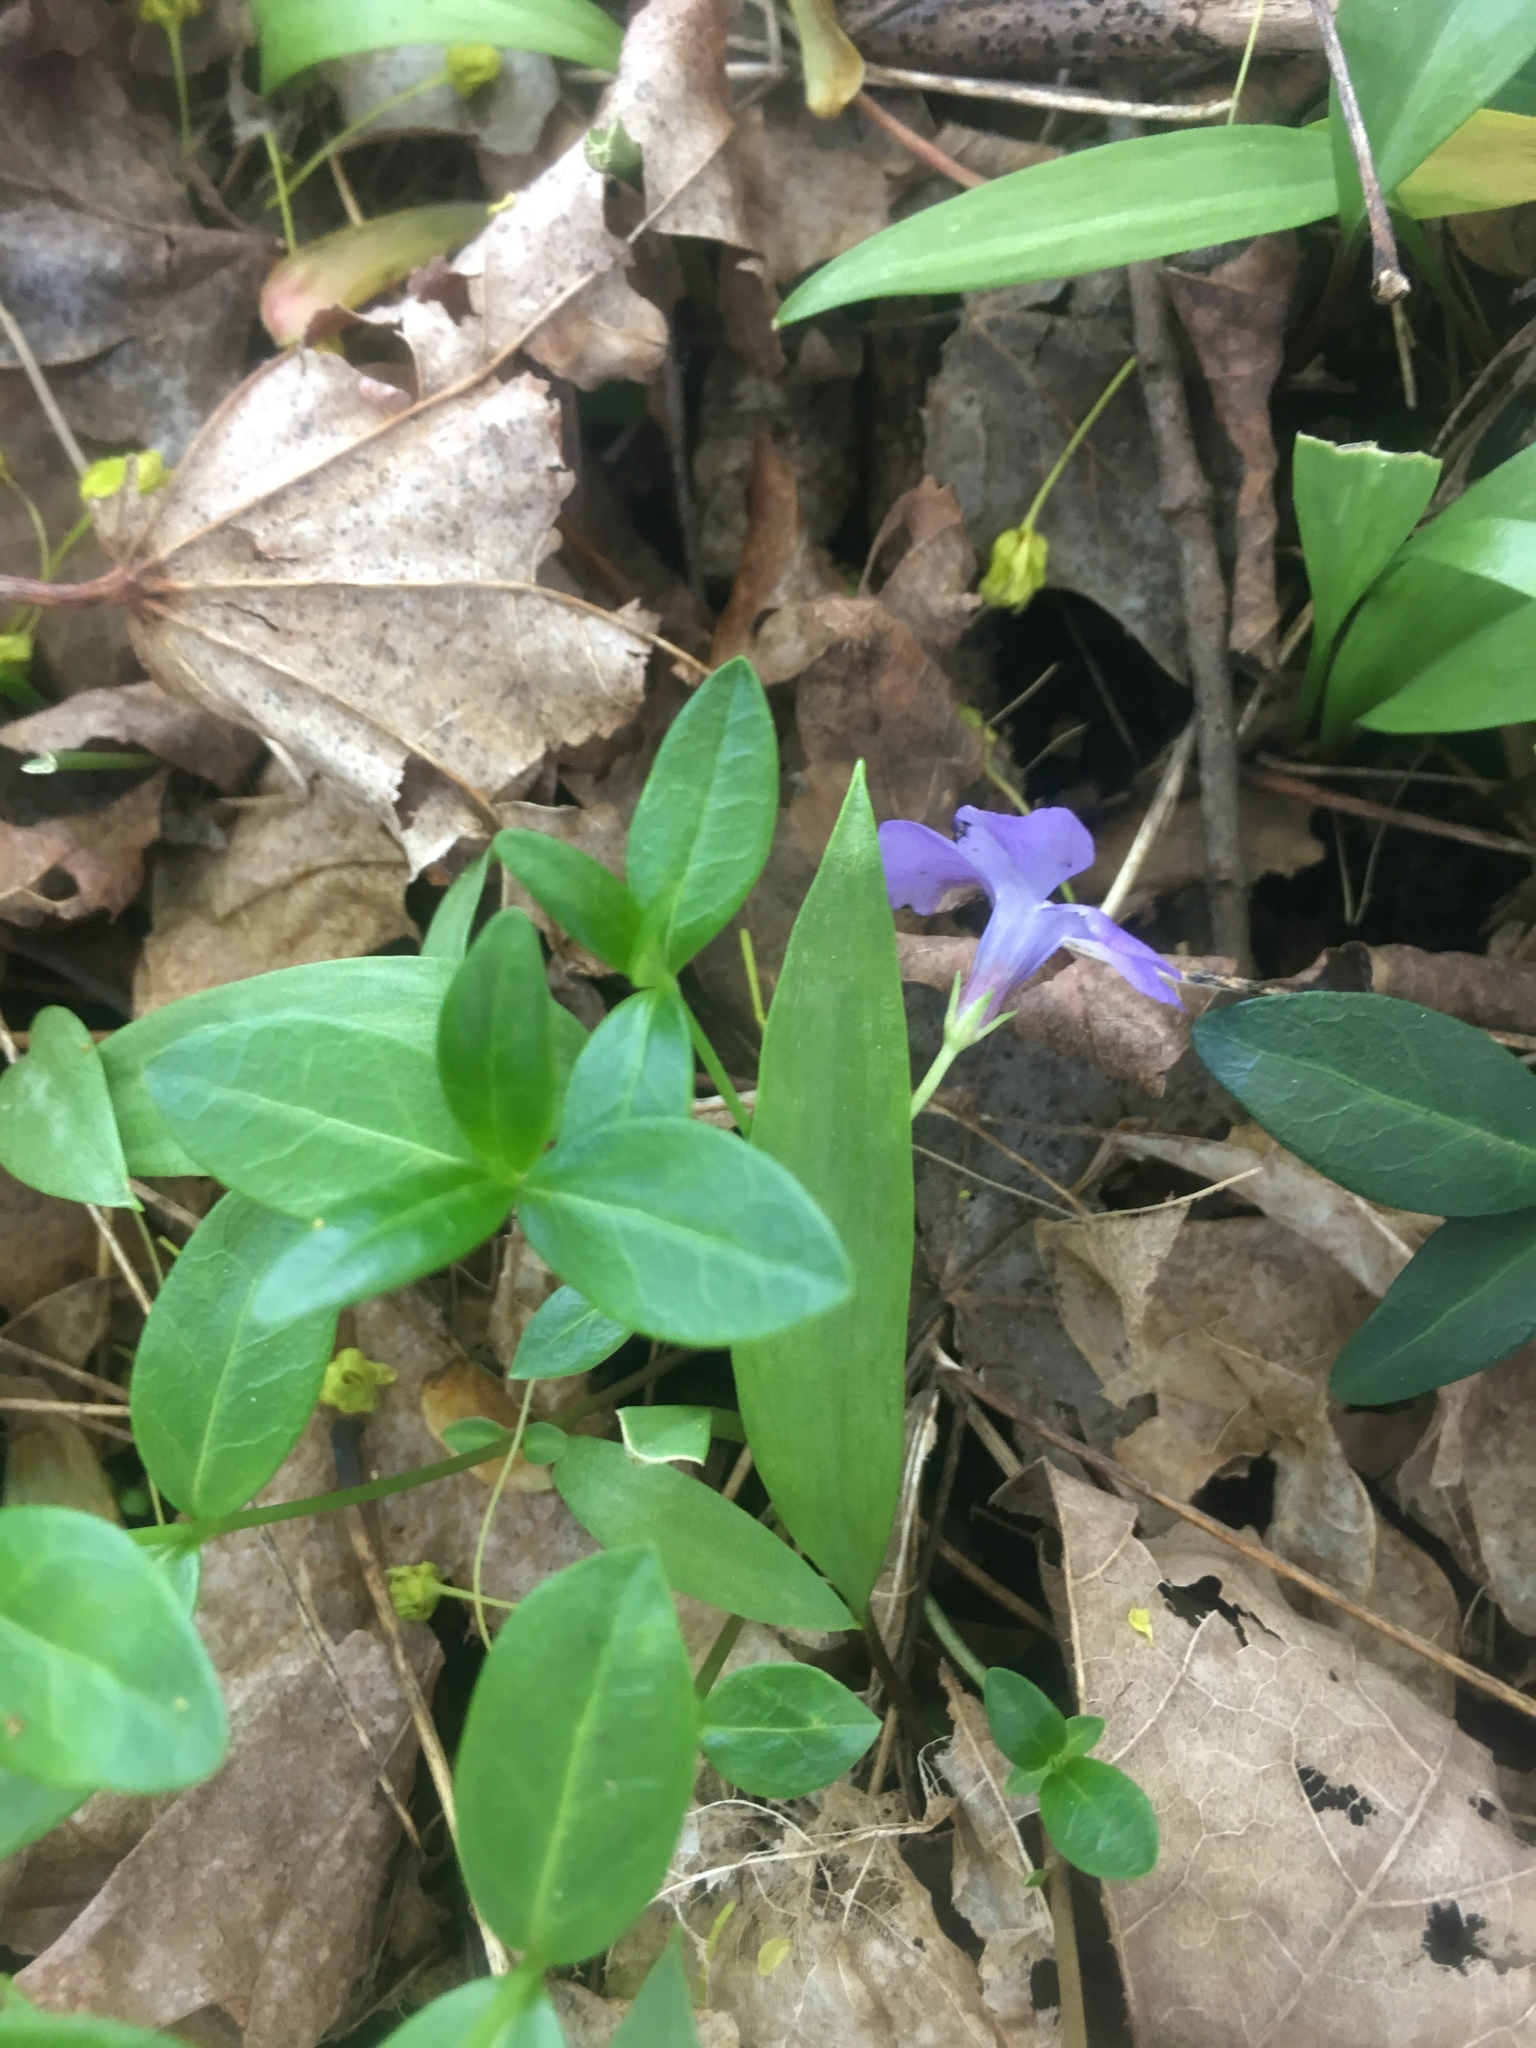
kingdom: Plantae
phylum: Tracheophyta
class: Magnoliopsida
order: Gentianales
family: Apocynaceae
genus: Vinca
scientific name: Vinca minor
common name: Lesser periwinkle
